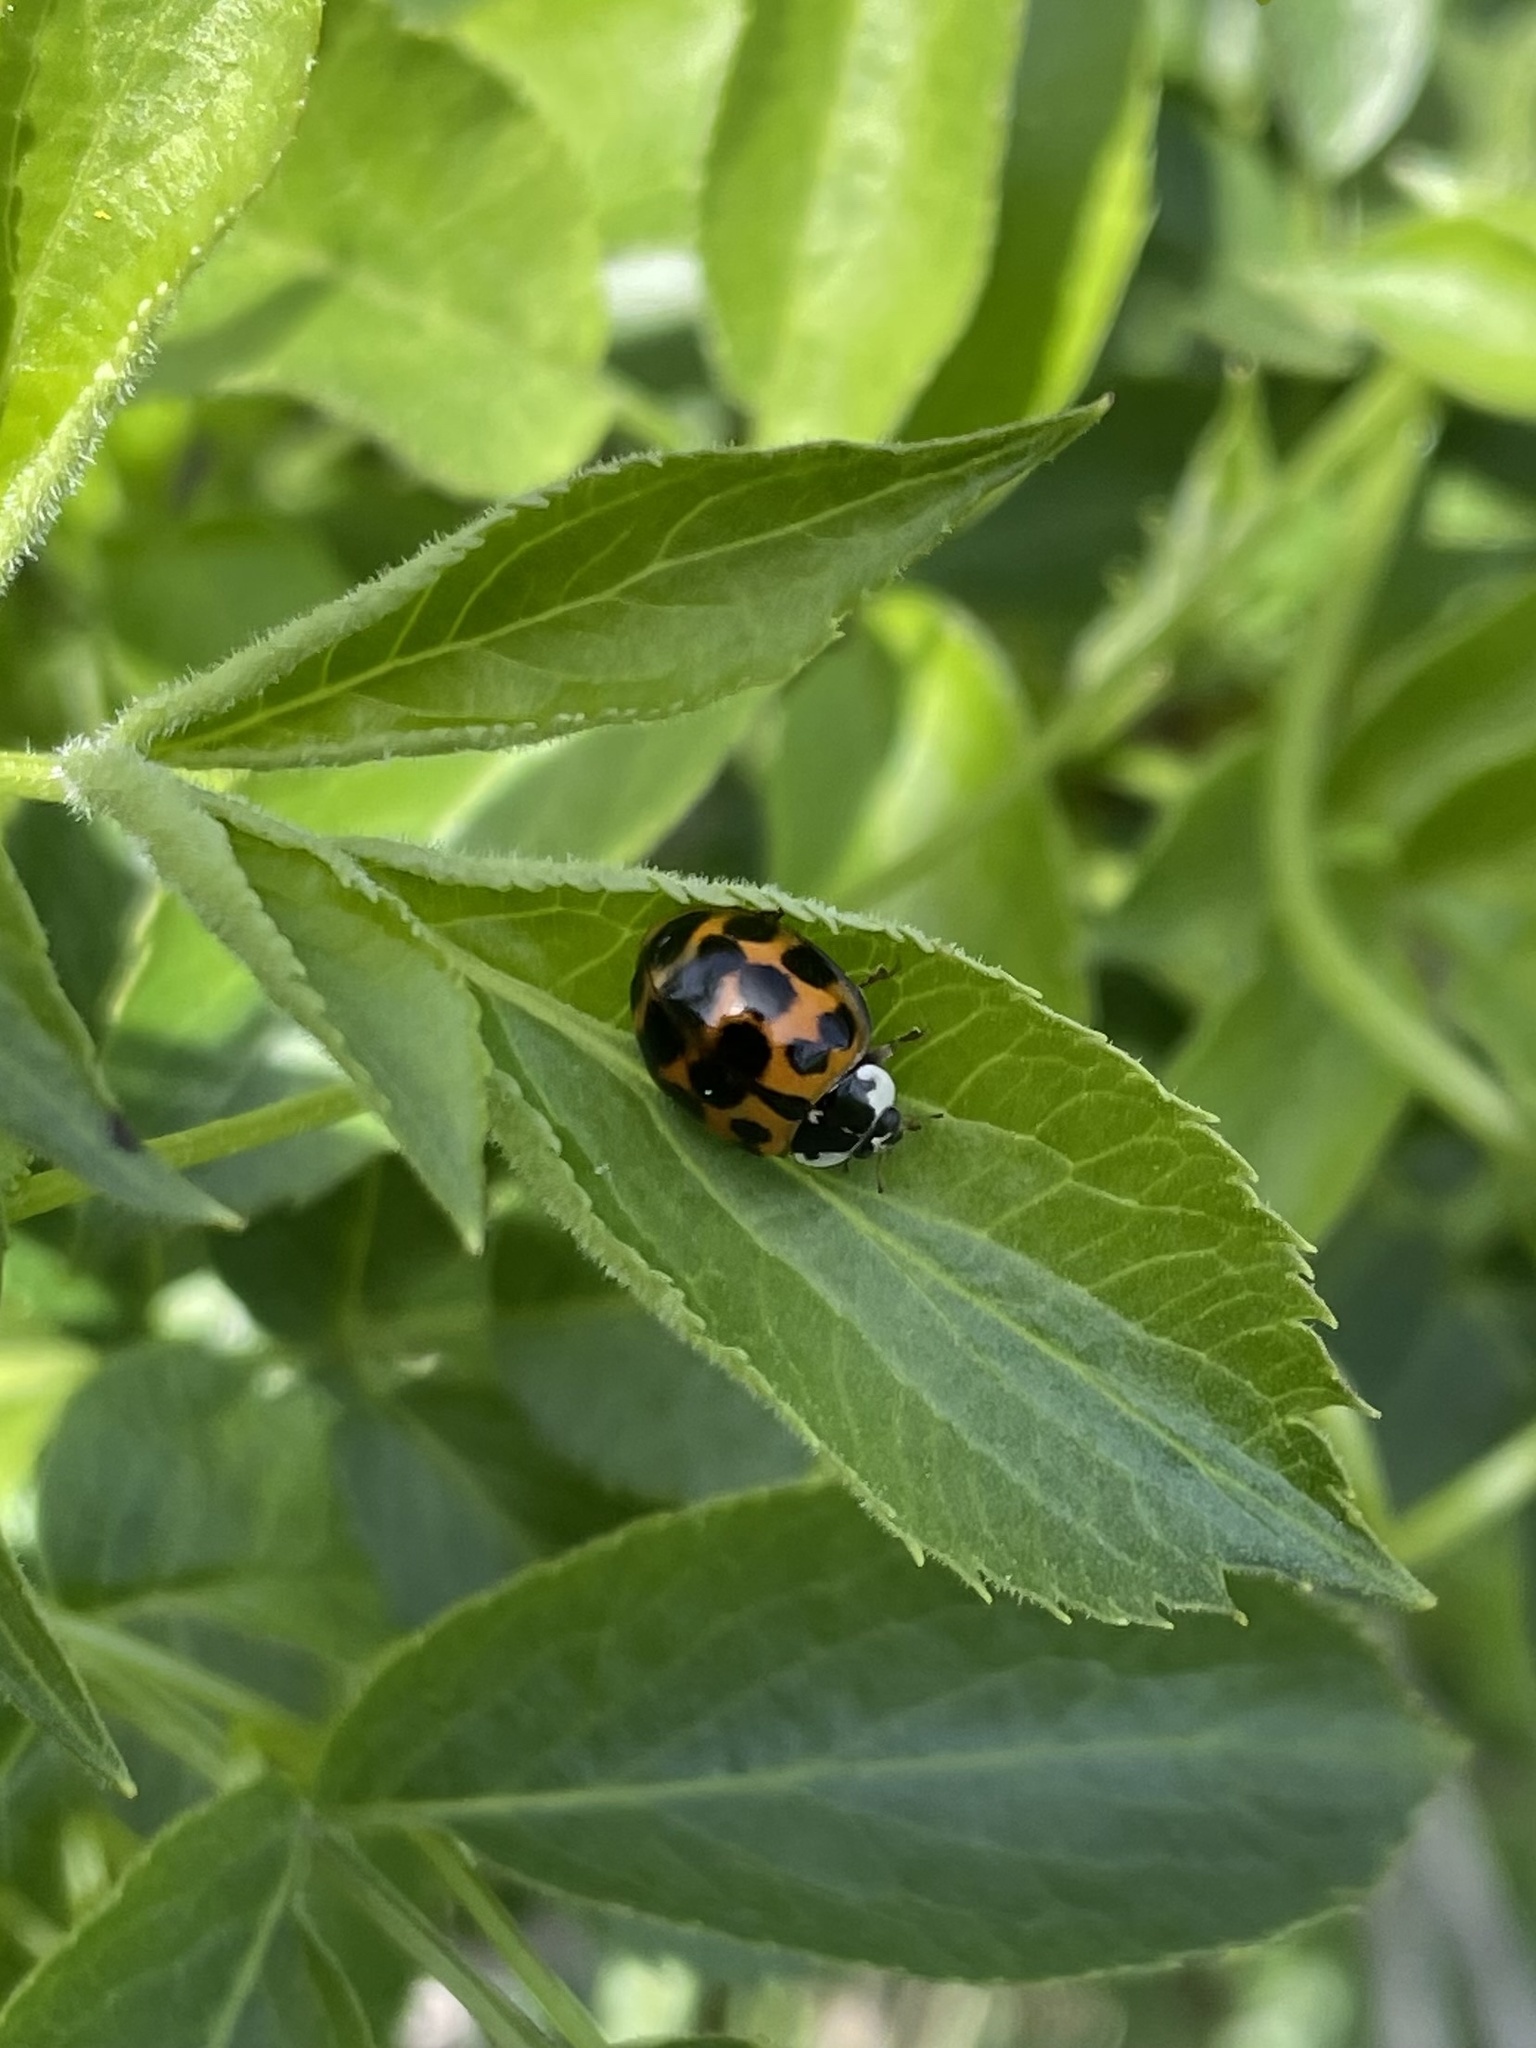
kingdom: Animalia
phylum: Arthropoda
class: Insecta
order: Coleoptera
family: Coccinellidae
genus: Harmonia
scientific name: Harmonia axyridis
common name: Harlequin ladybird
